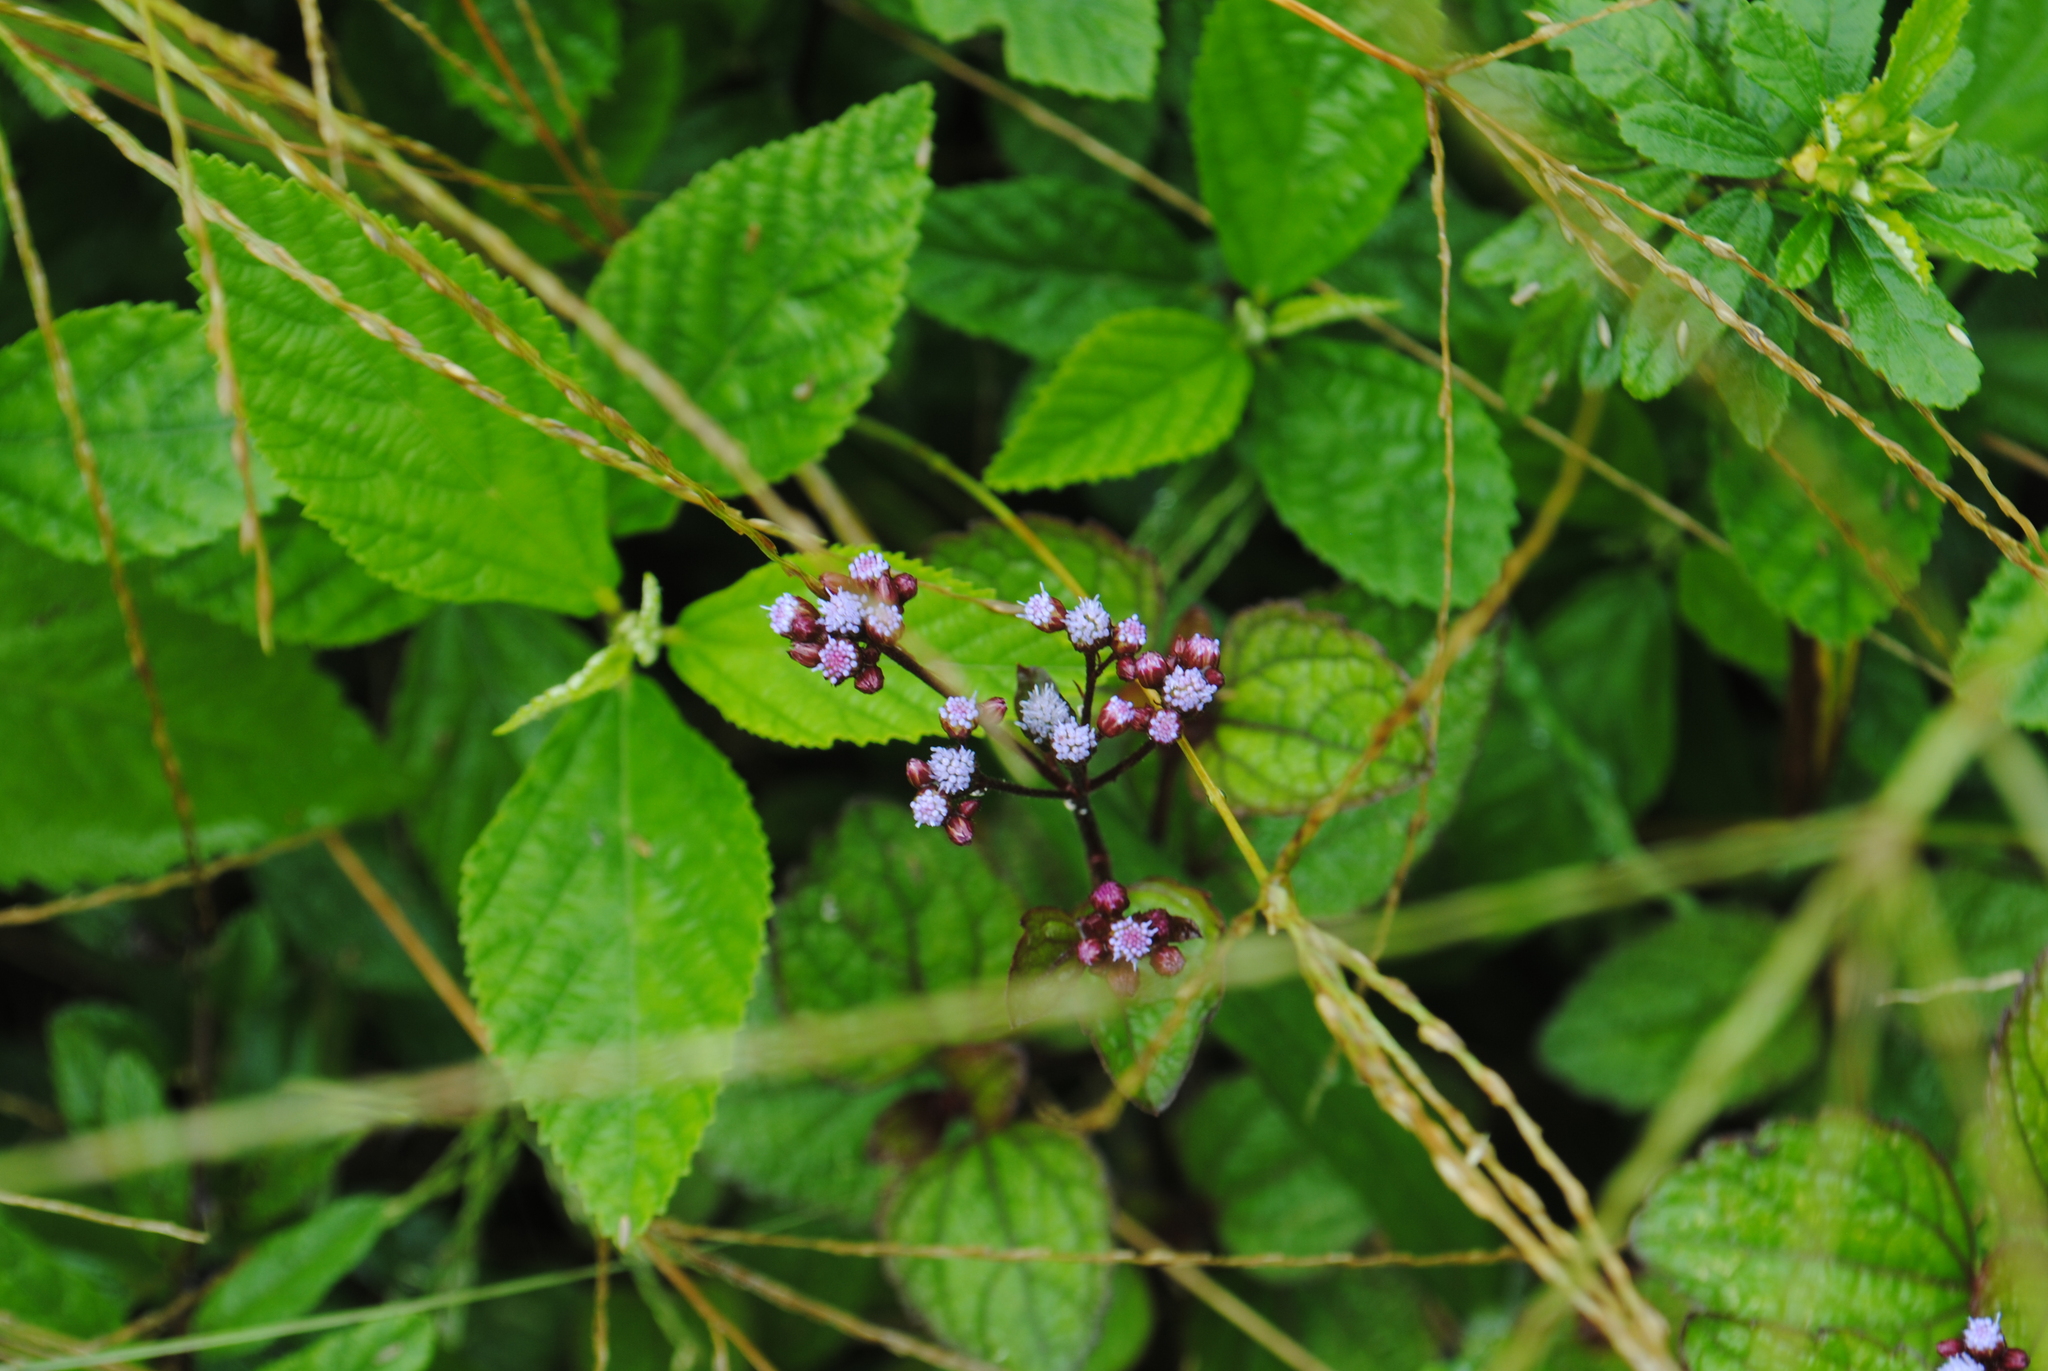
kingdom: Plantae
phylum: Tracheophyta
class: Magnoliopsida
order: Asterales
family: Asteraceae
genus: Ageratum
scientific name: Ageratum conyzoides
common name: Tropical whiteweed
